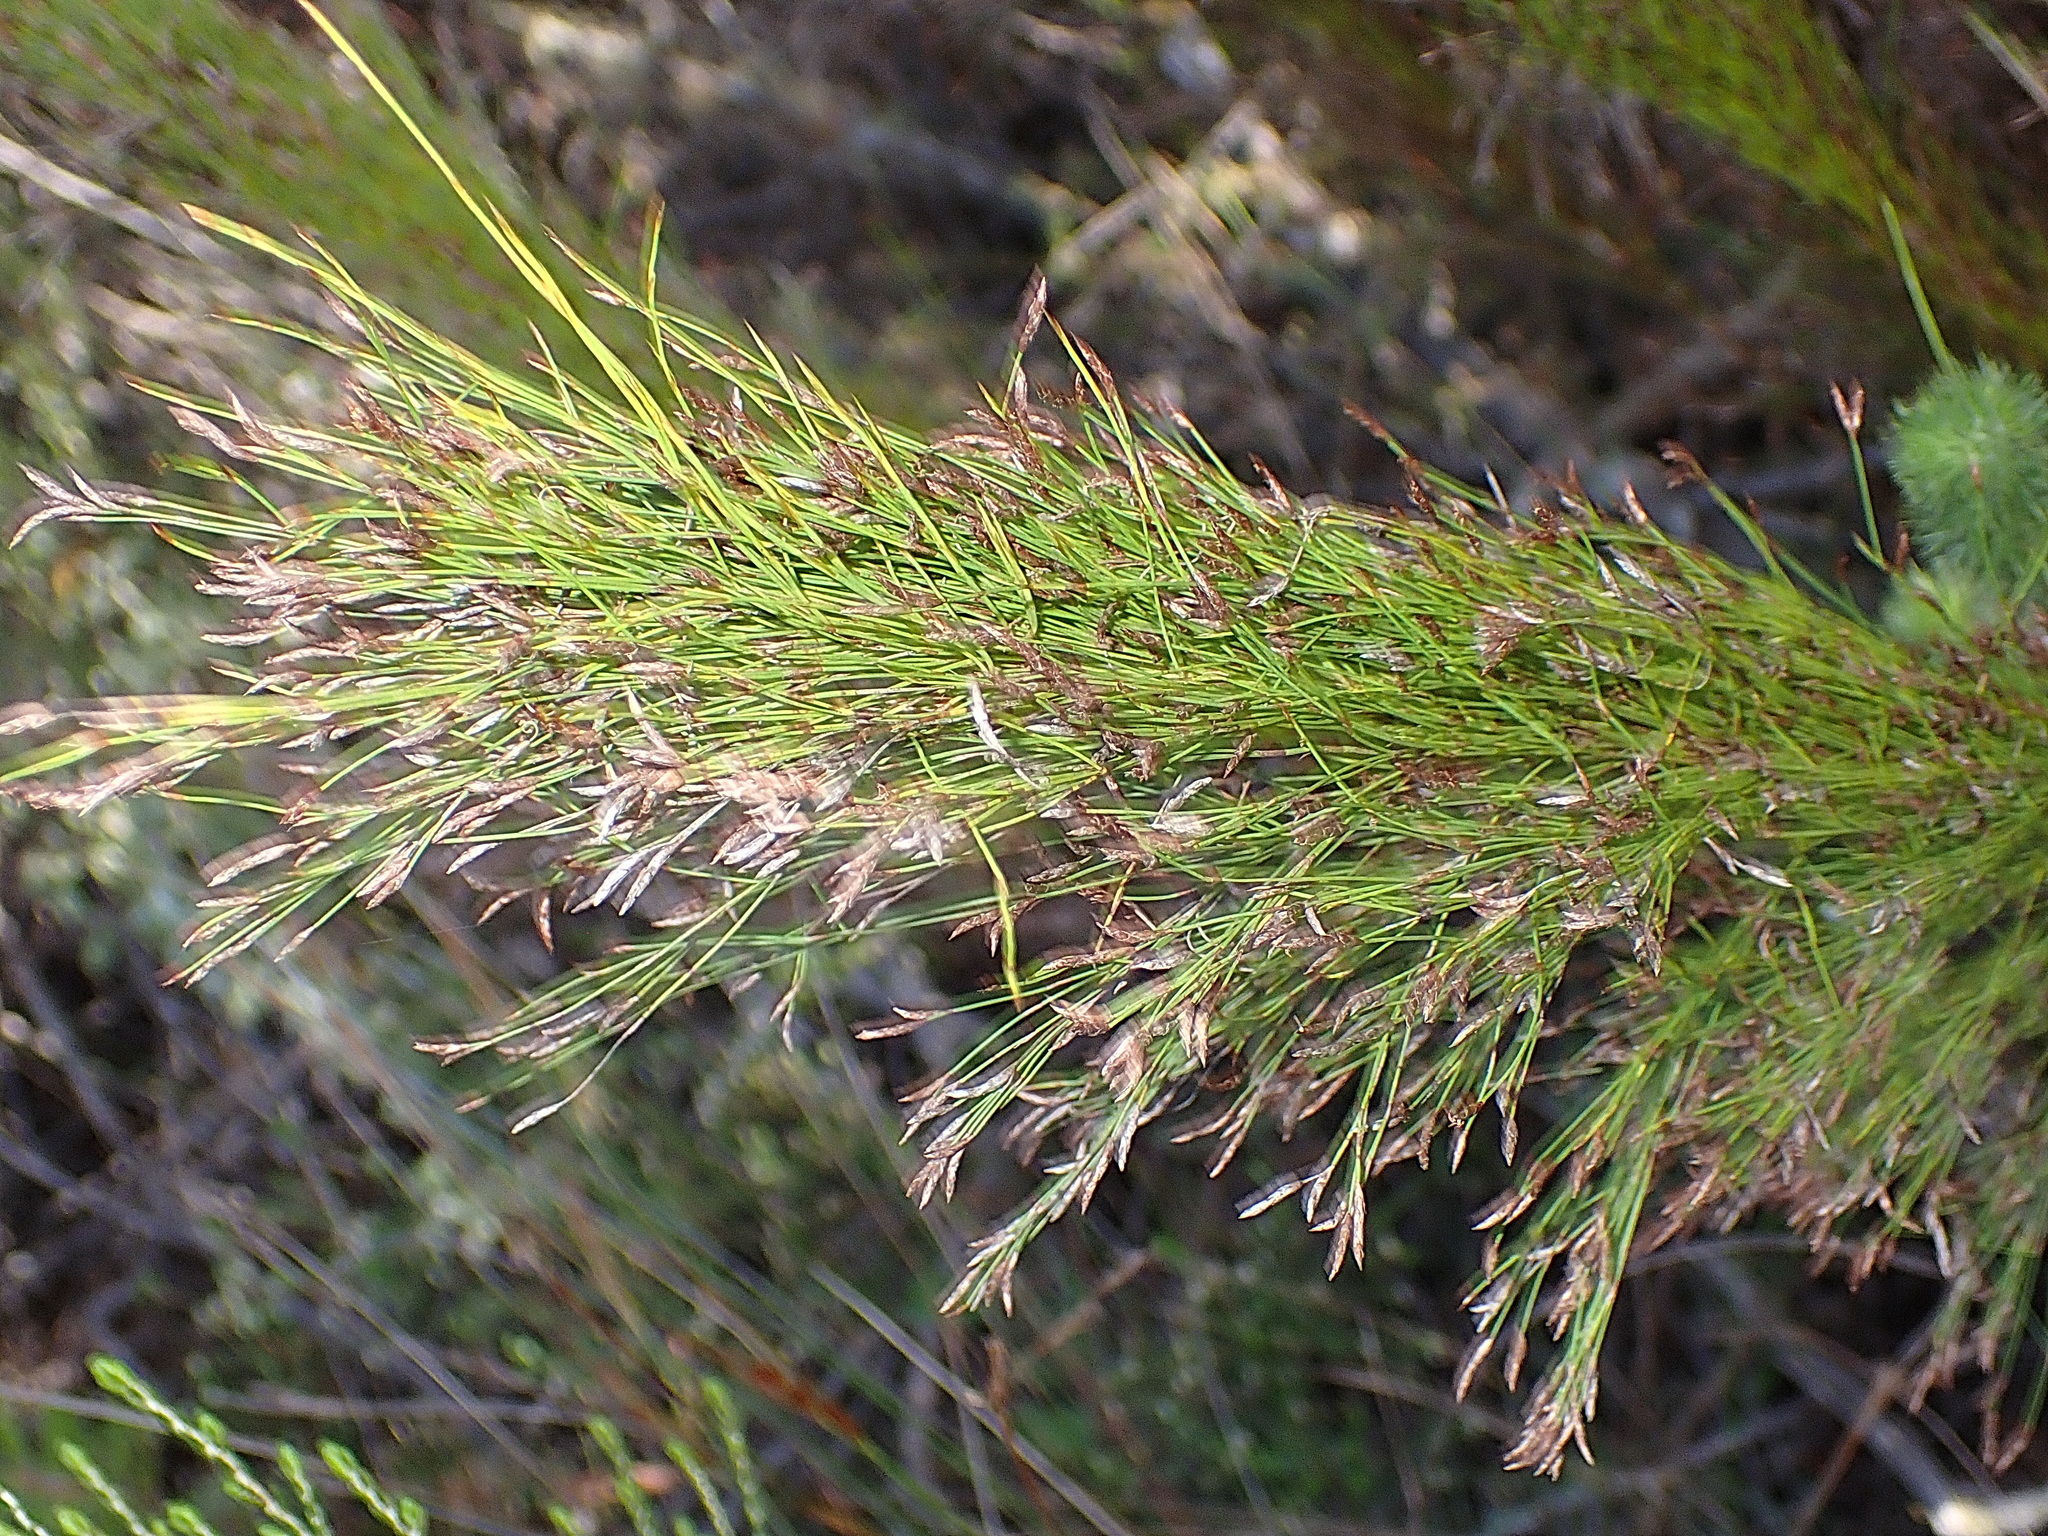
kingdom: Plantae
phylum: Tracheophyta
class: Liliopsida
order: Poales
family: Restionaceae
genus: Restio
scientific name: Restio leptoclados
